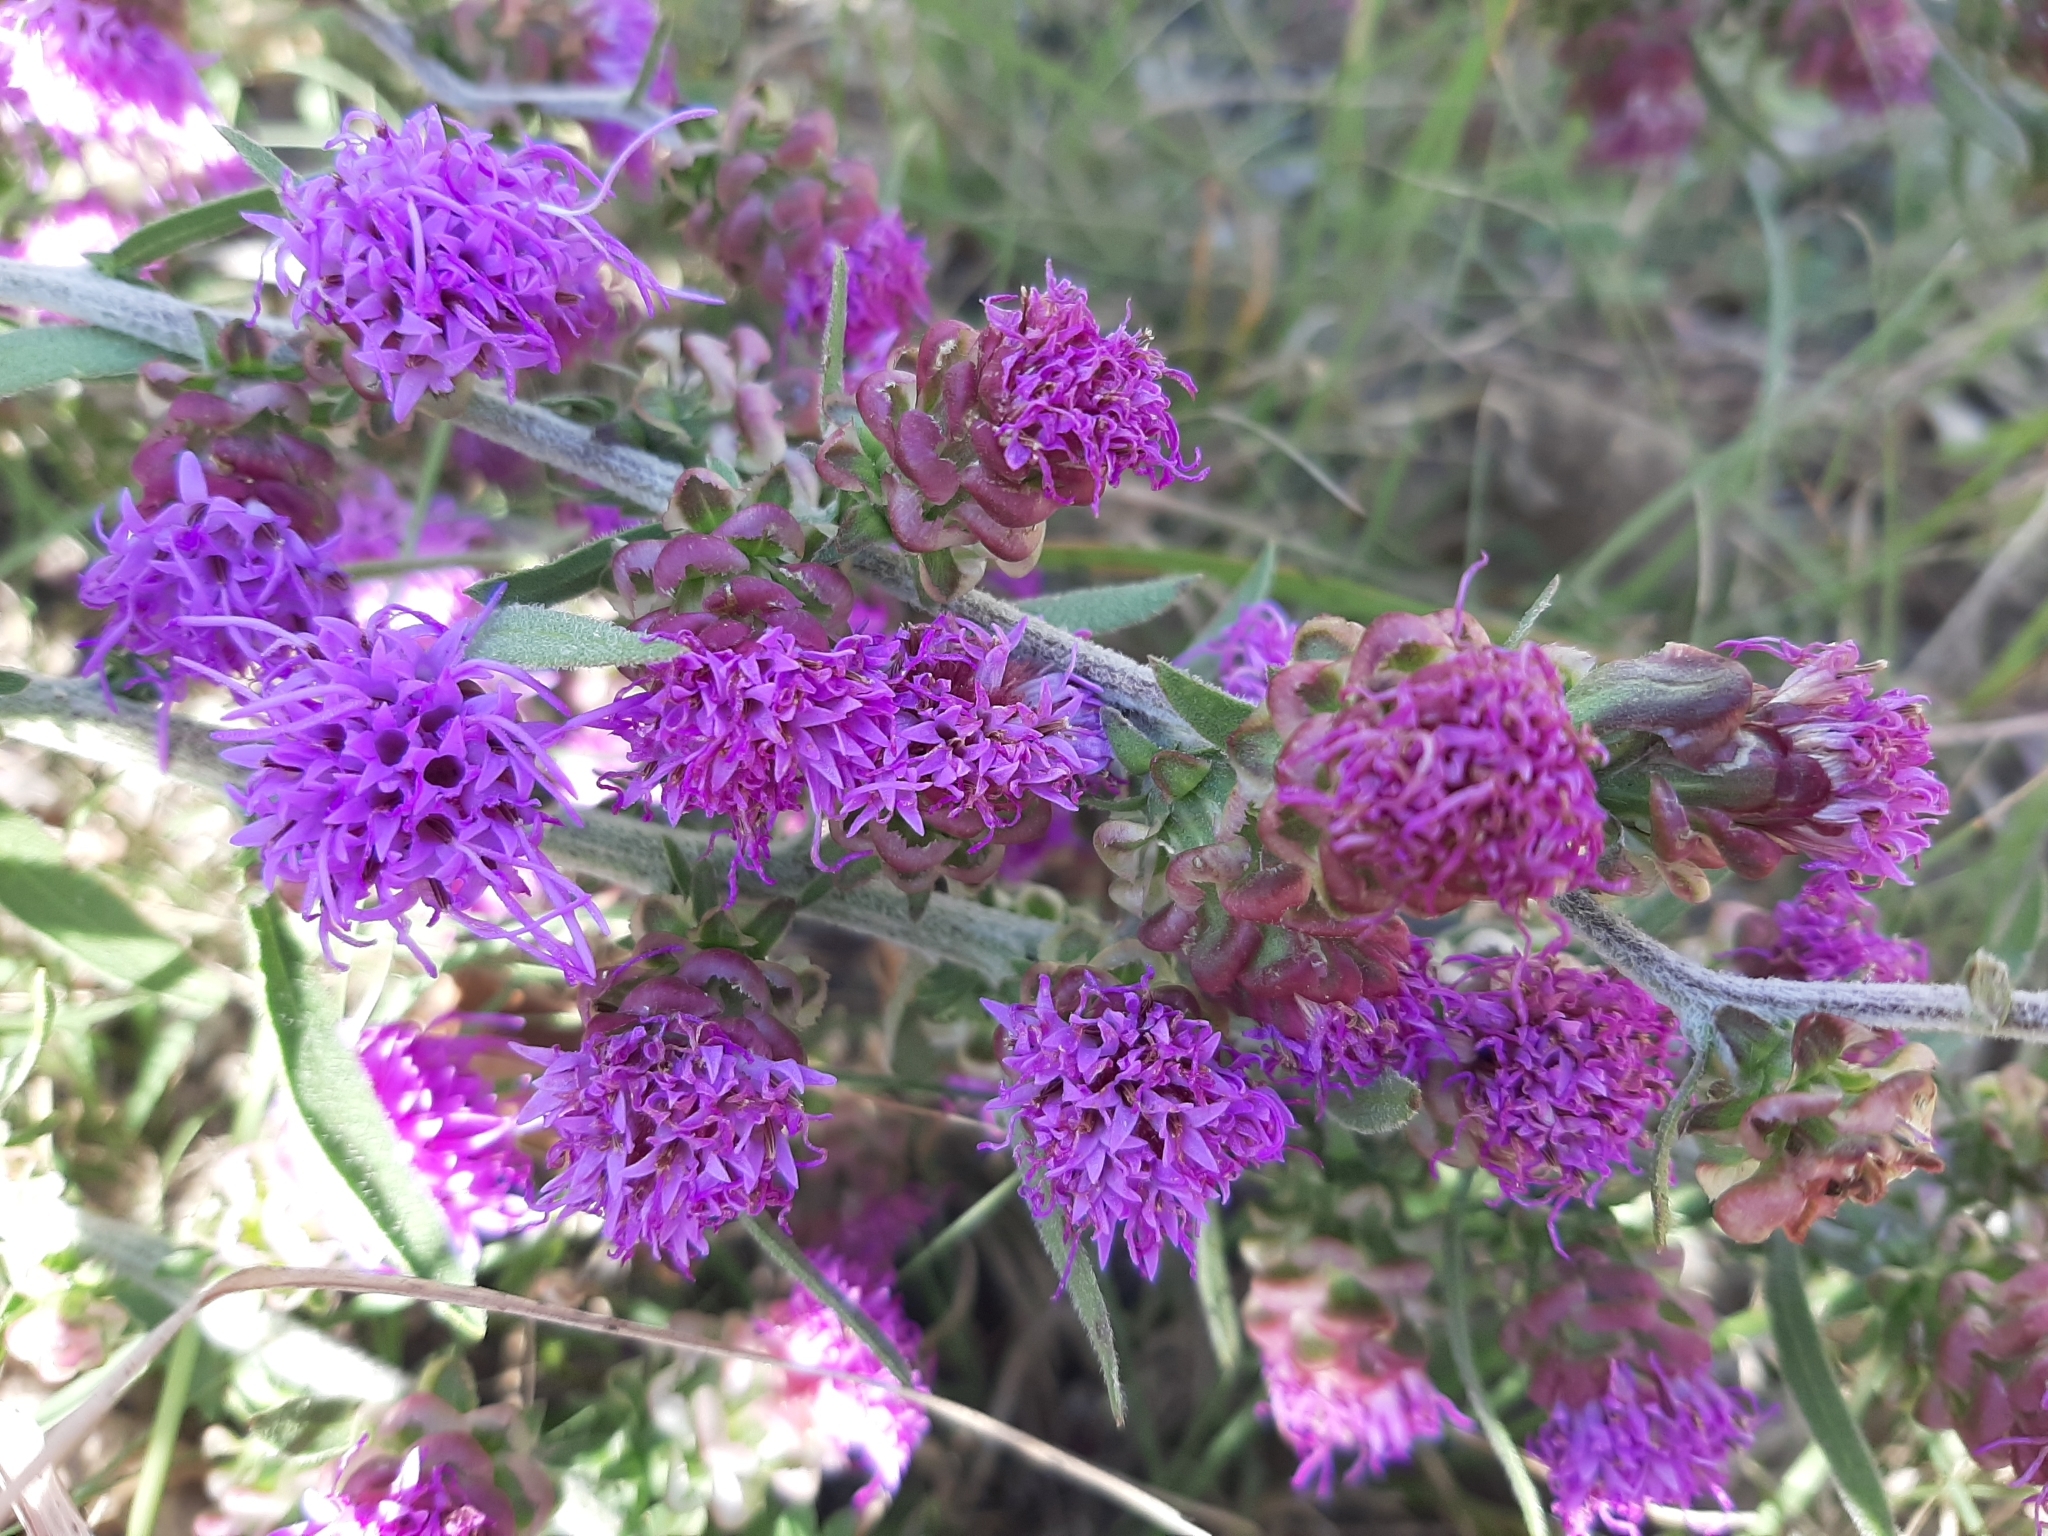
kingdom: Plantae
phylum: Tracheophyta
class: Magnoliopsida
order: Asterales
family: Asteraceae
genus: Liatris
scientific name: Liatris aspera
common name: Lacerate blazing-star
